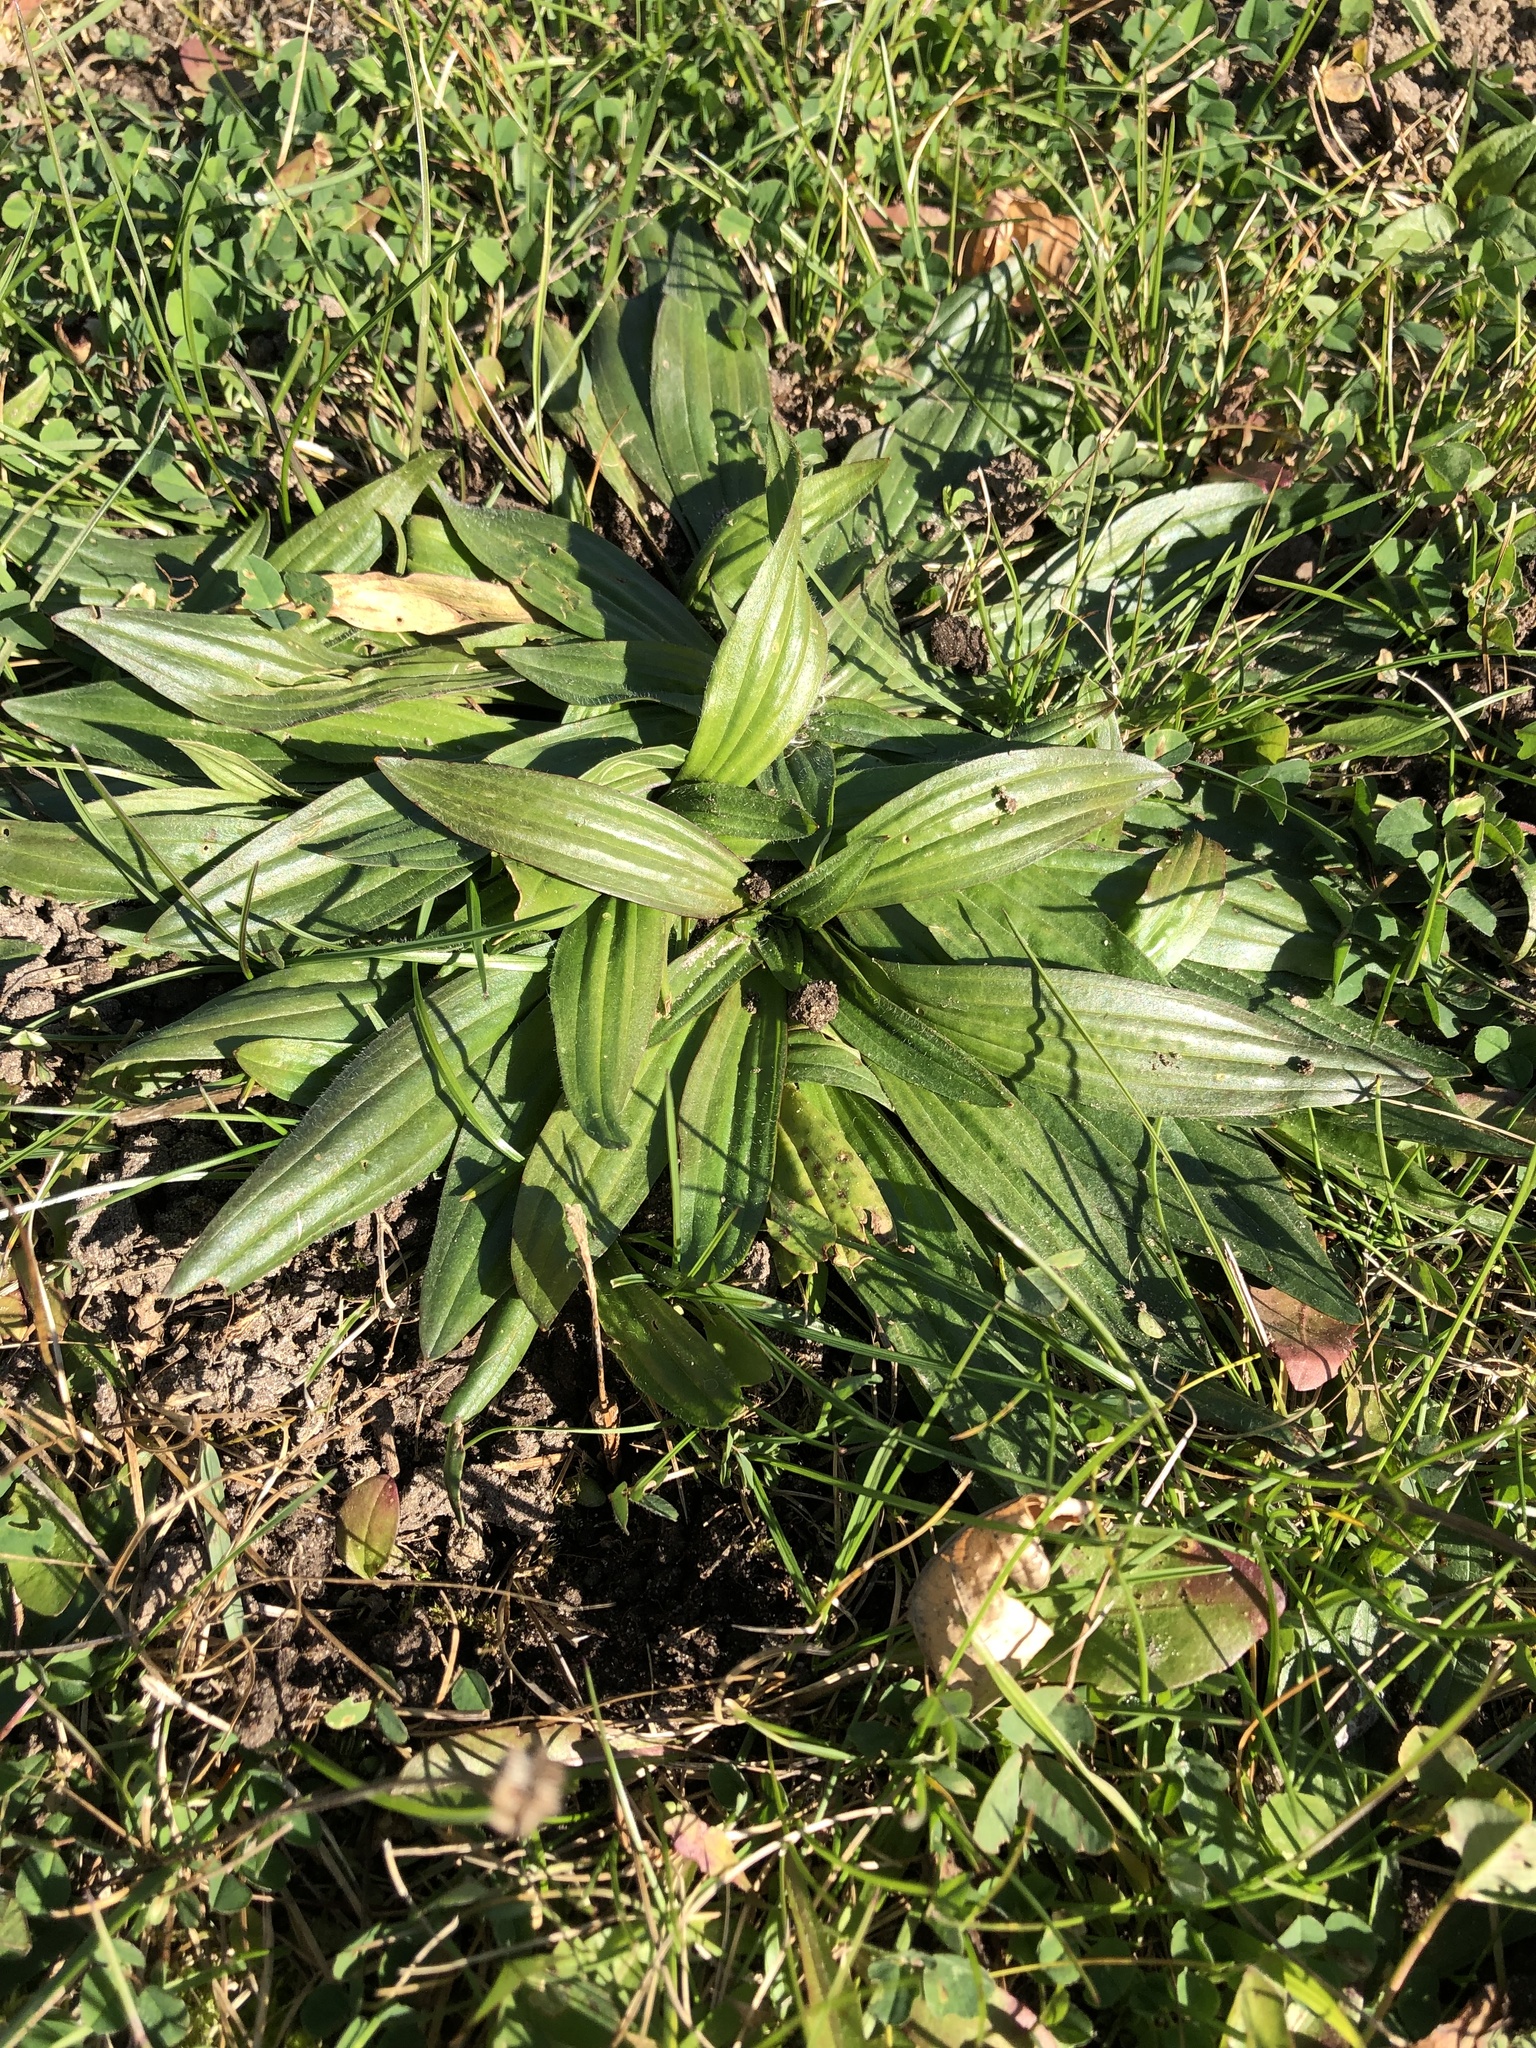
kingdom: Plantae
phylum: Tracheophyta
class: Magnoliopsida
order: Lamiales
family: Plantaginaceae
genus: Plantago
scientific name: Plantago lanceolata
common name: Ribwort plantain
